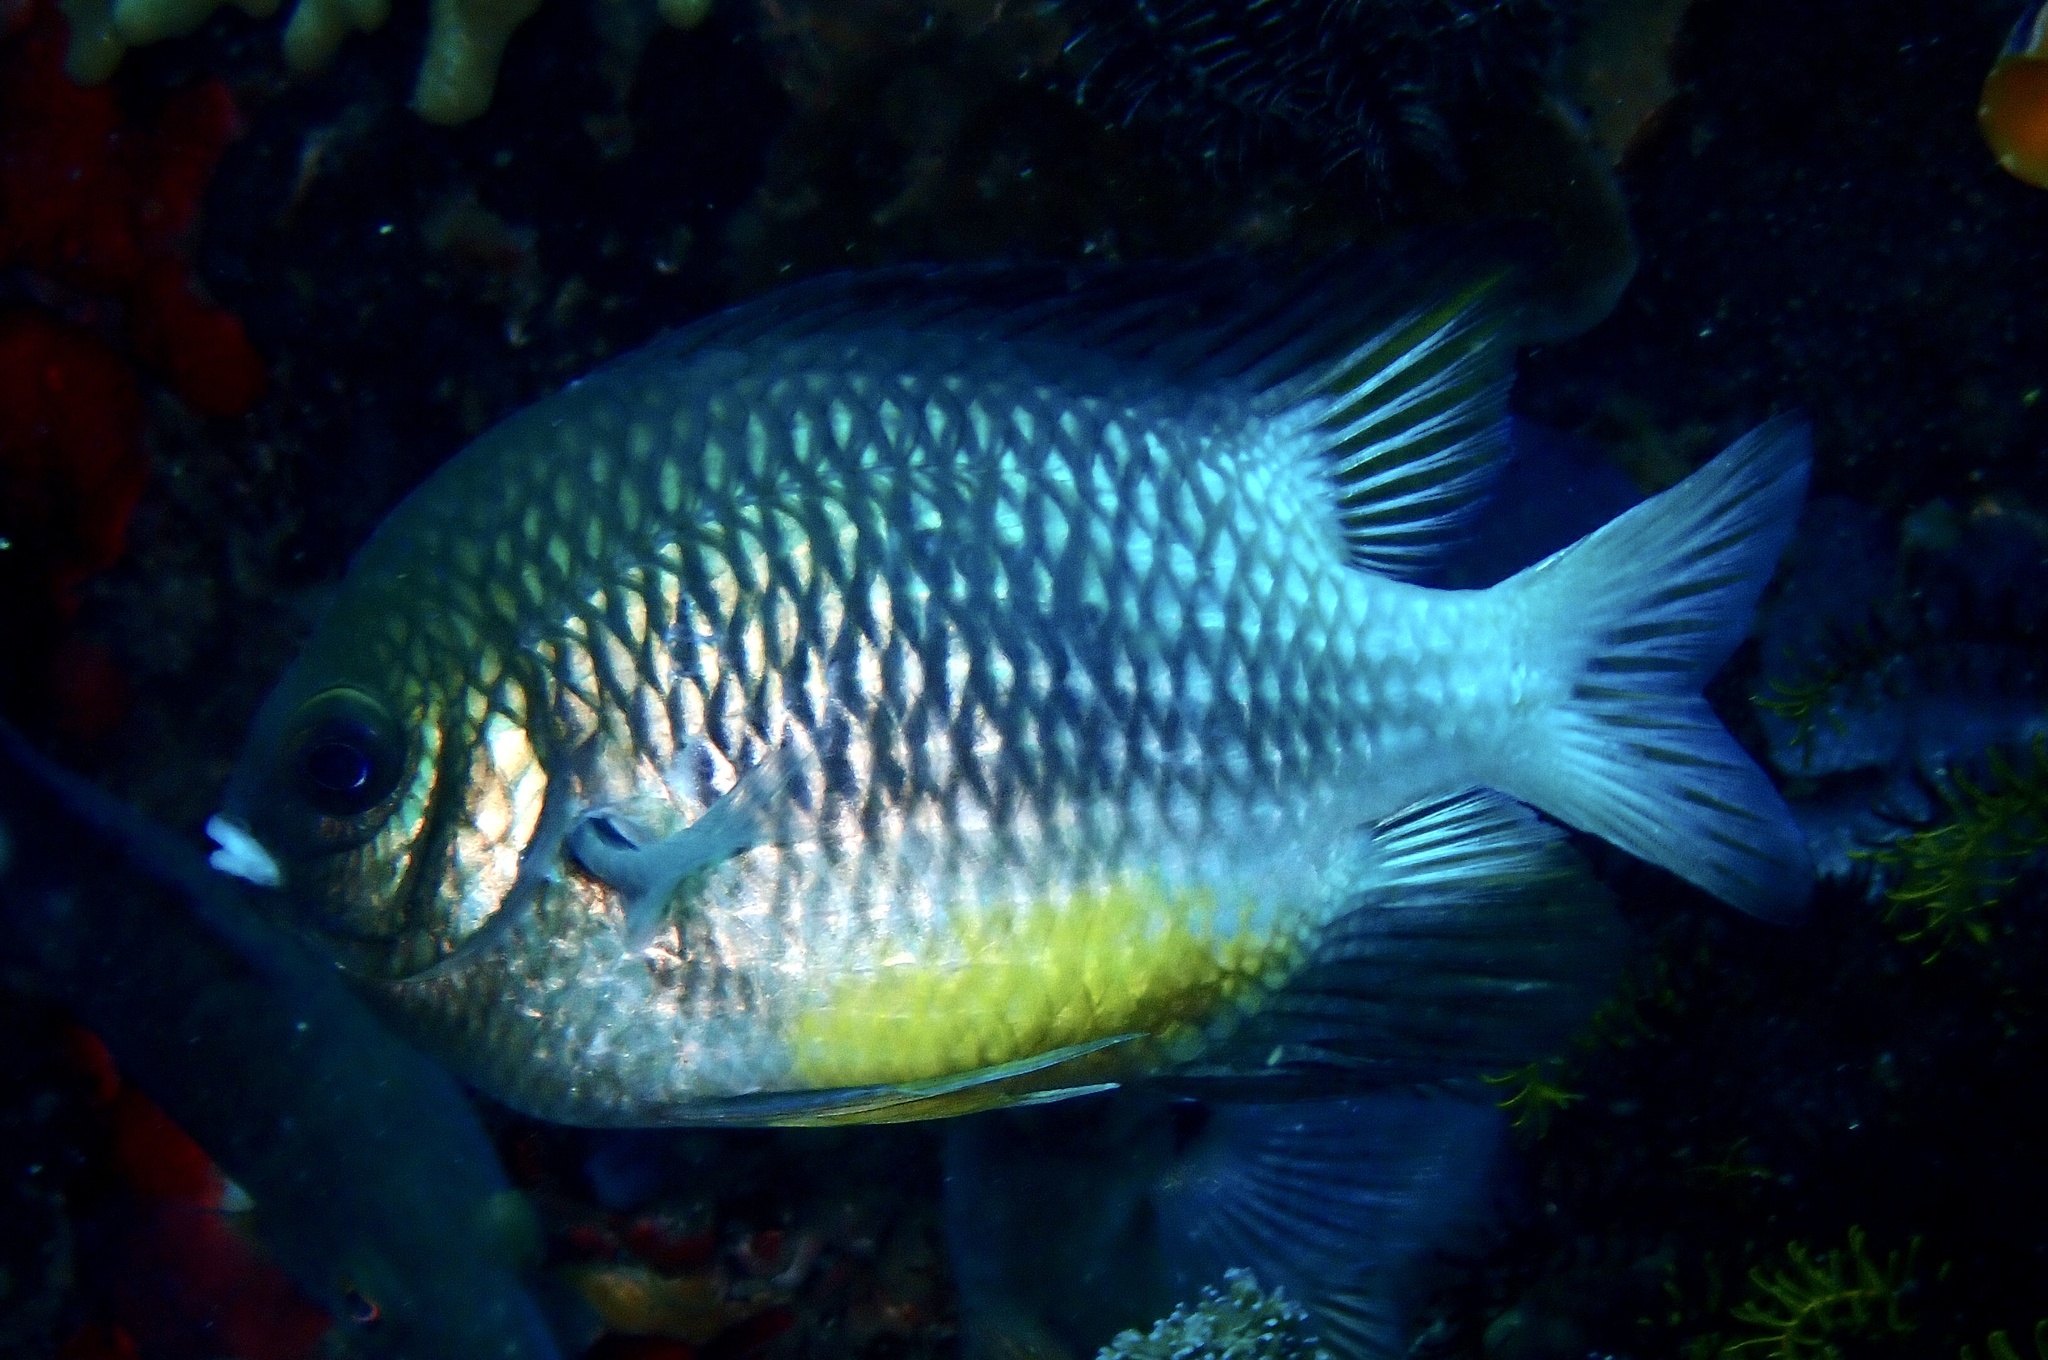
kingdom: Animalia
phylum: Chordata
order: Perciformes
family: Pomacentridae
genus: Amblyglyphidodon
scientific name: Amblyglyphidodon leucogaster
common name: White-belly damsel
